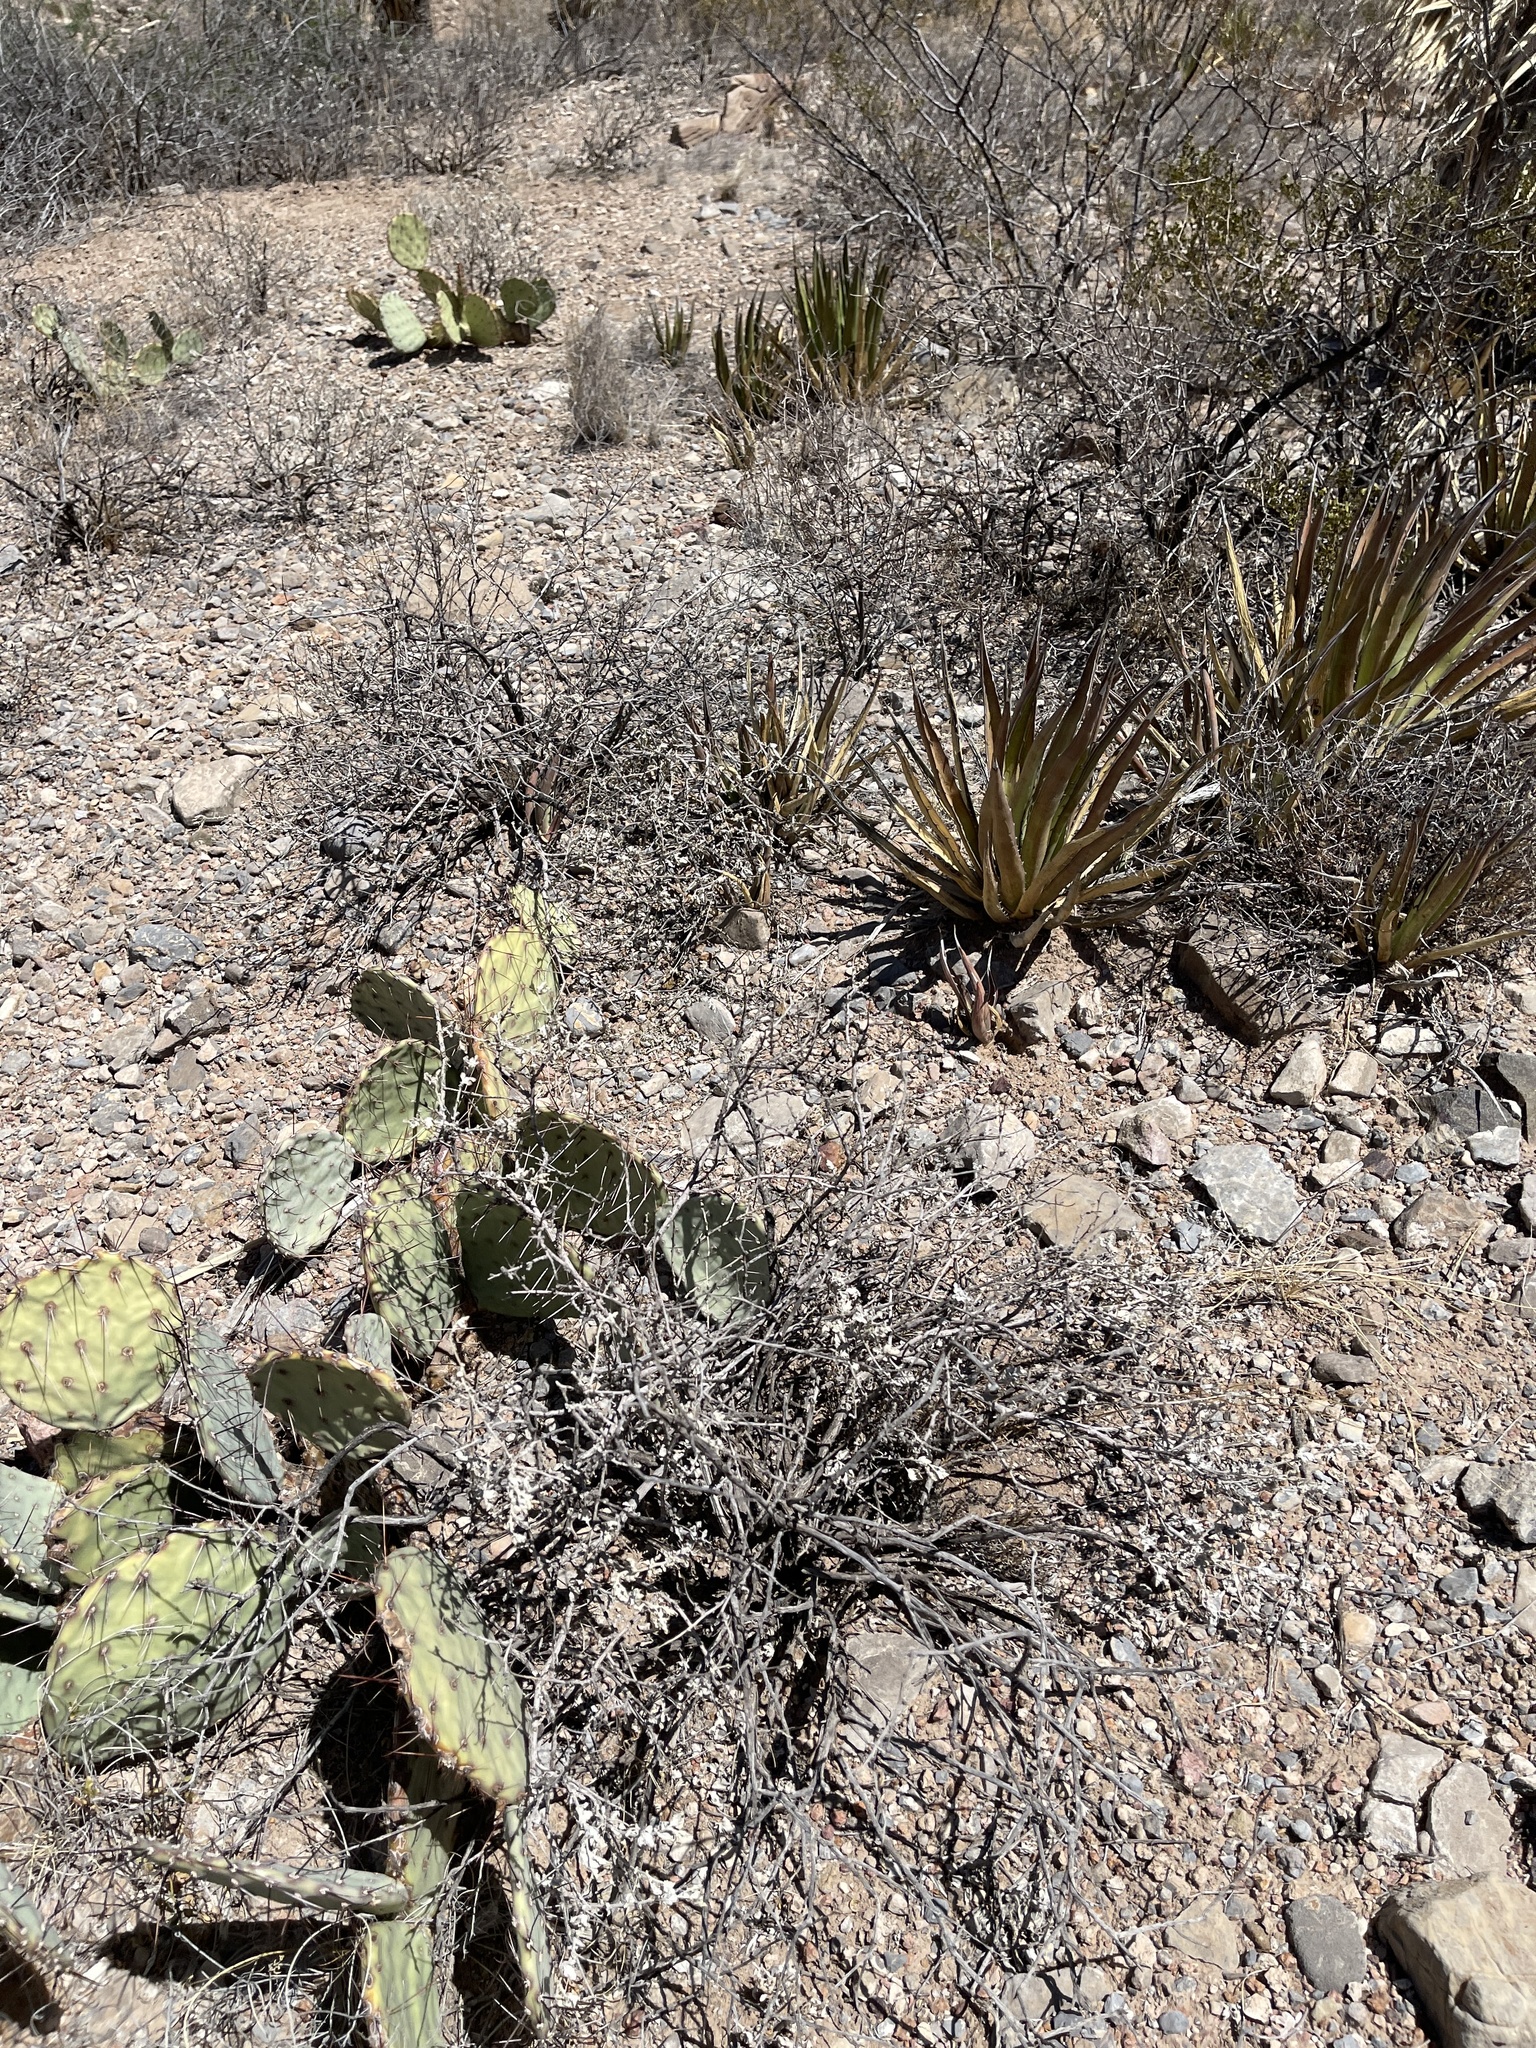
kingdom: Plantae
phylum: Tracheophyta
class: Magnoliopsida
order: Asterales
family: Asteraceae
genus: Parthenium
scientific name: Parthenium incanum
